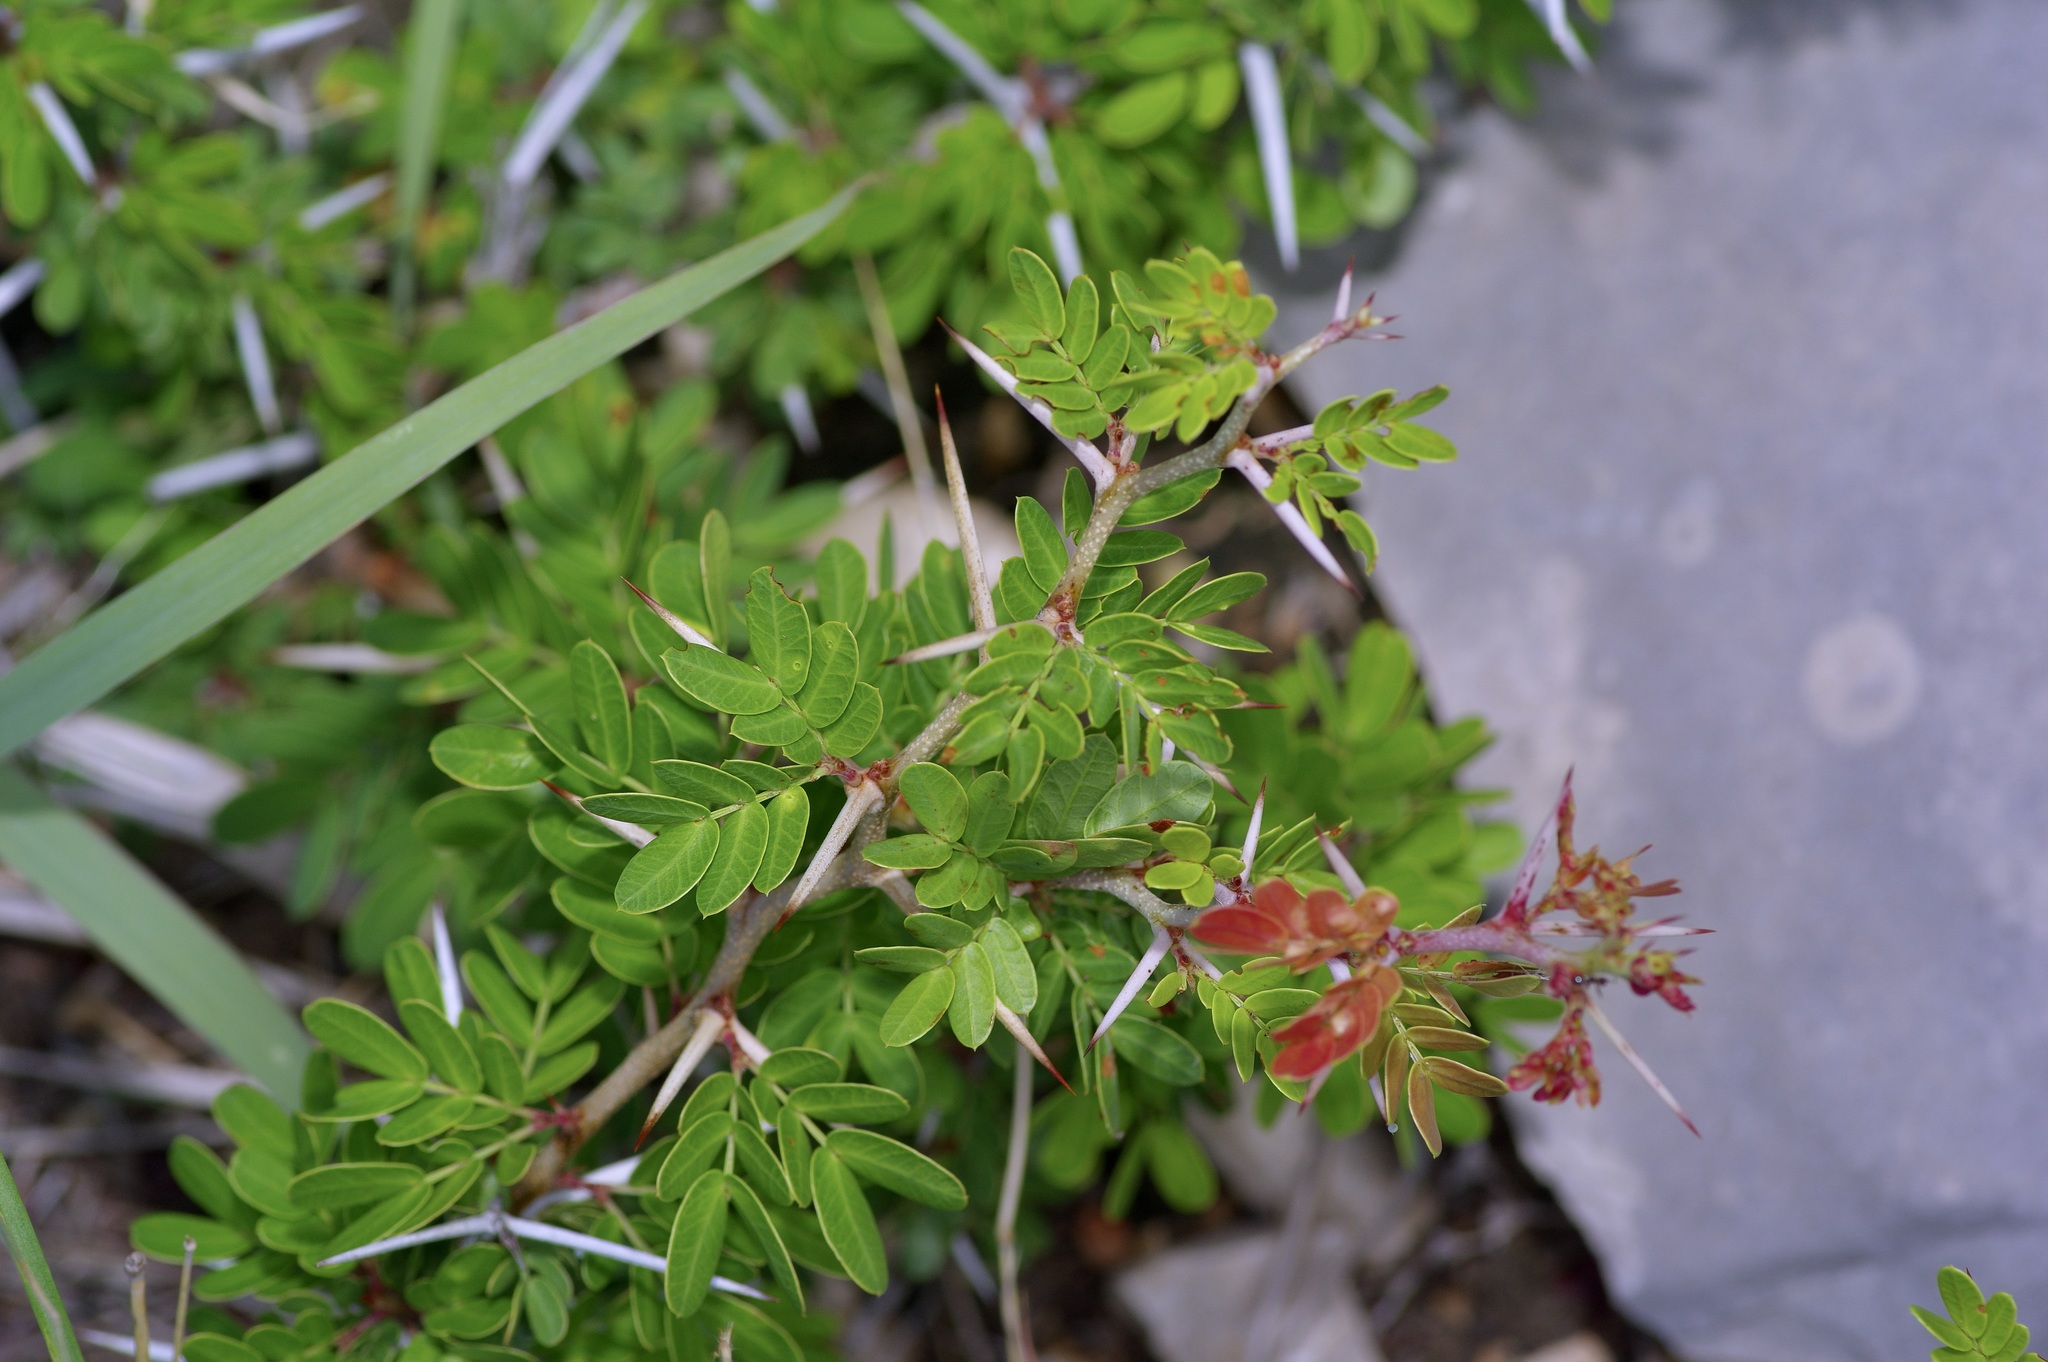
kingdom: Plantae
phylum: Tracheophyta
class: Magnoliopsida
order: Fabales
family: Fabaceae
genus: Vachellia
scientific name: Vachellia rigidula
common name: Blackbrush
